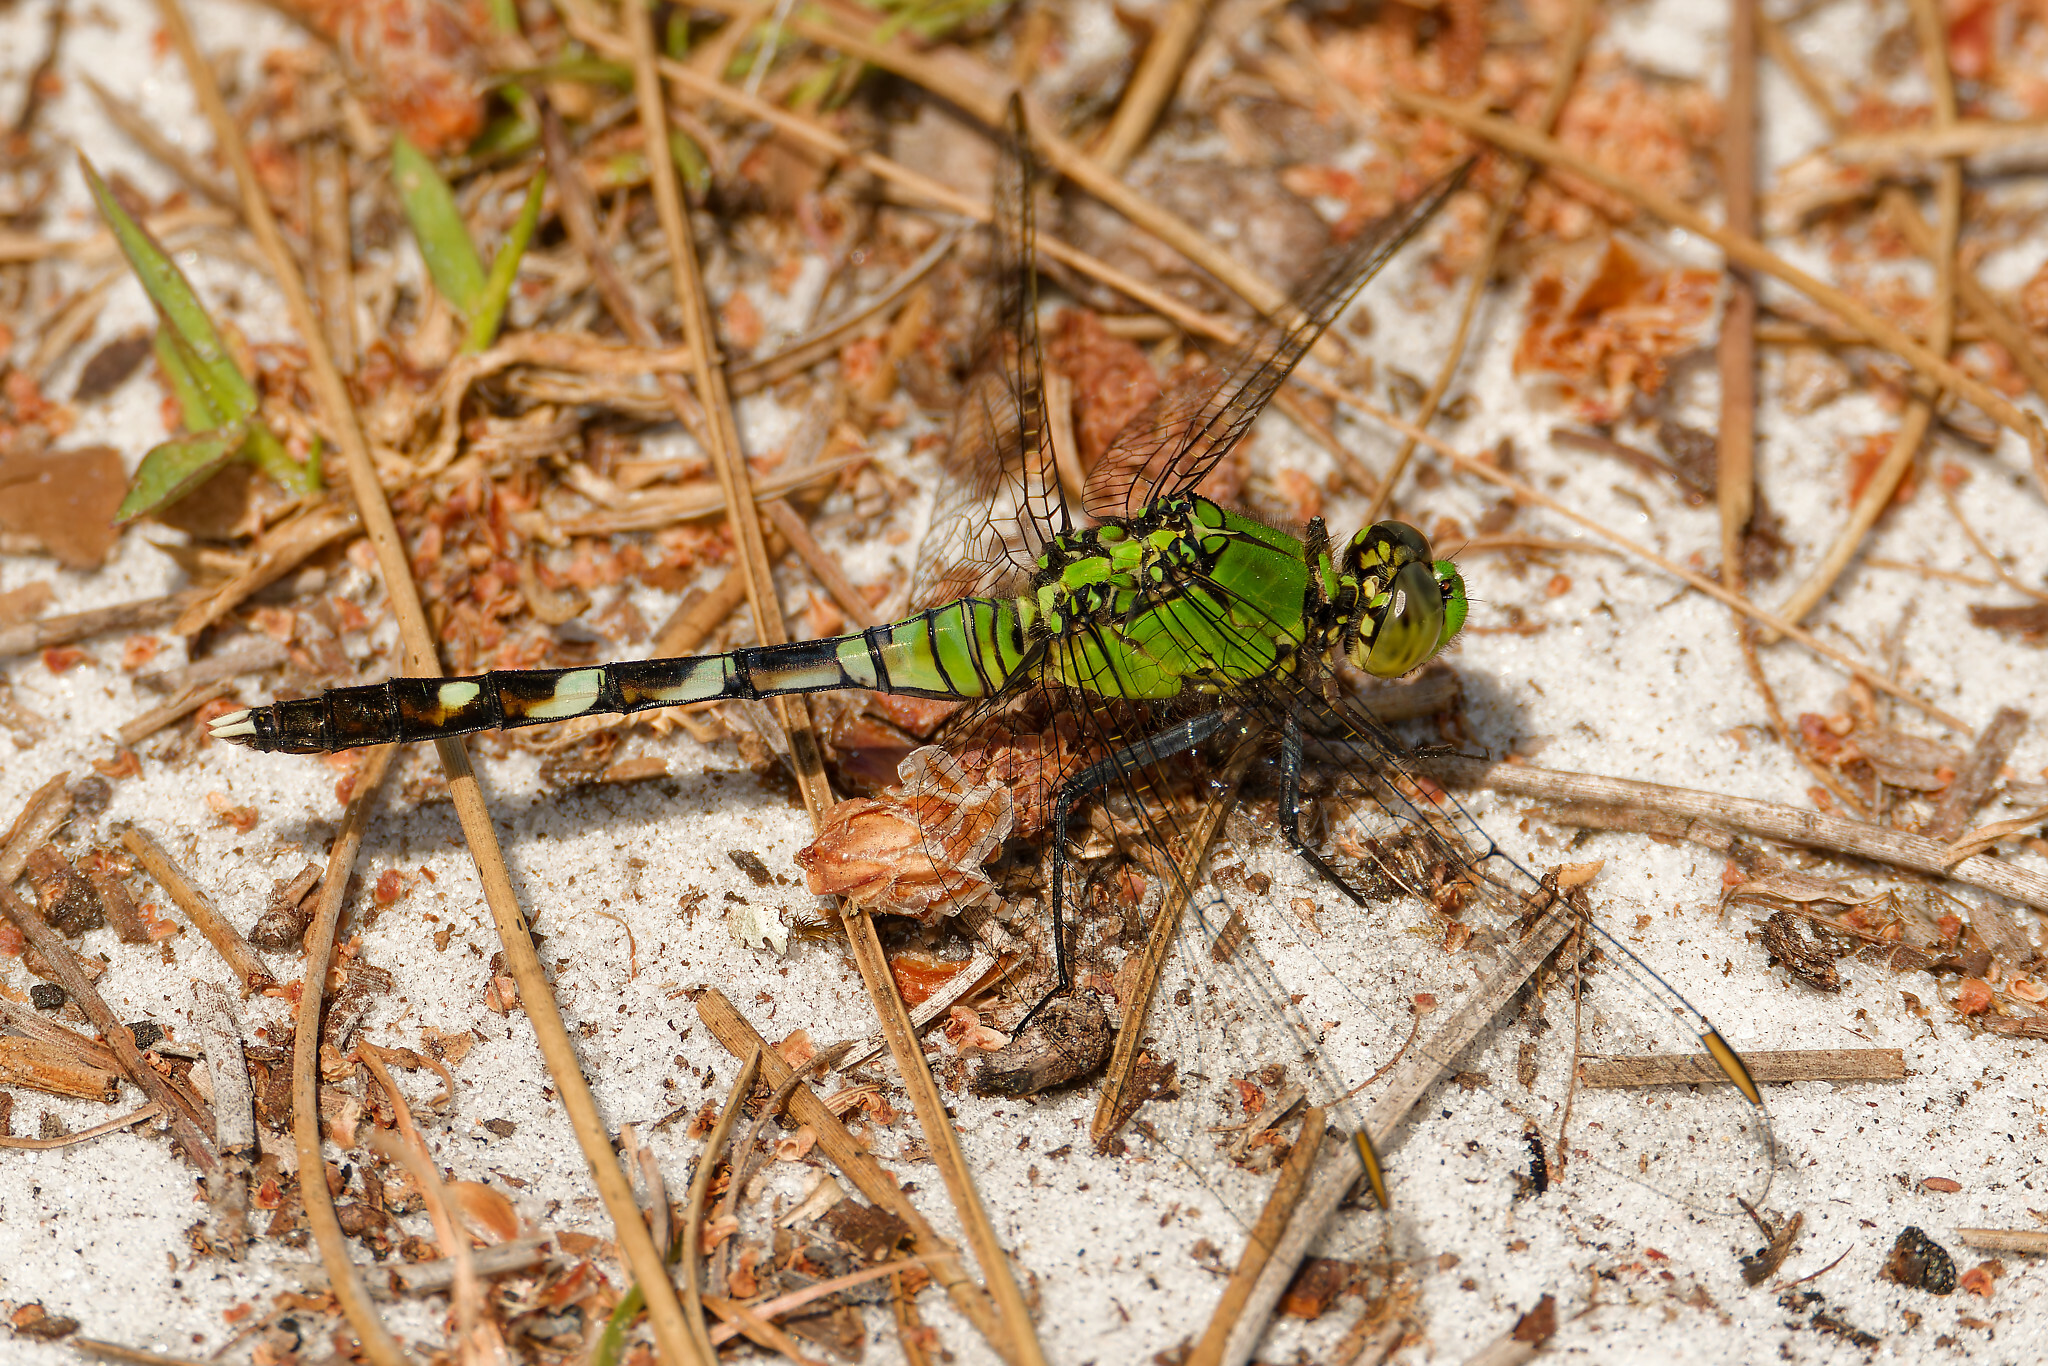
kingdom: Animalia
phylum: Arthropoda
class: Insecta
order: Odonata
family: Libellulidae
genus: Erythemis
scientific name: Erythemis simplicicollis
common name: Eastern pondhawk
